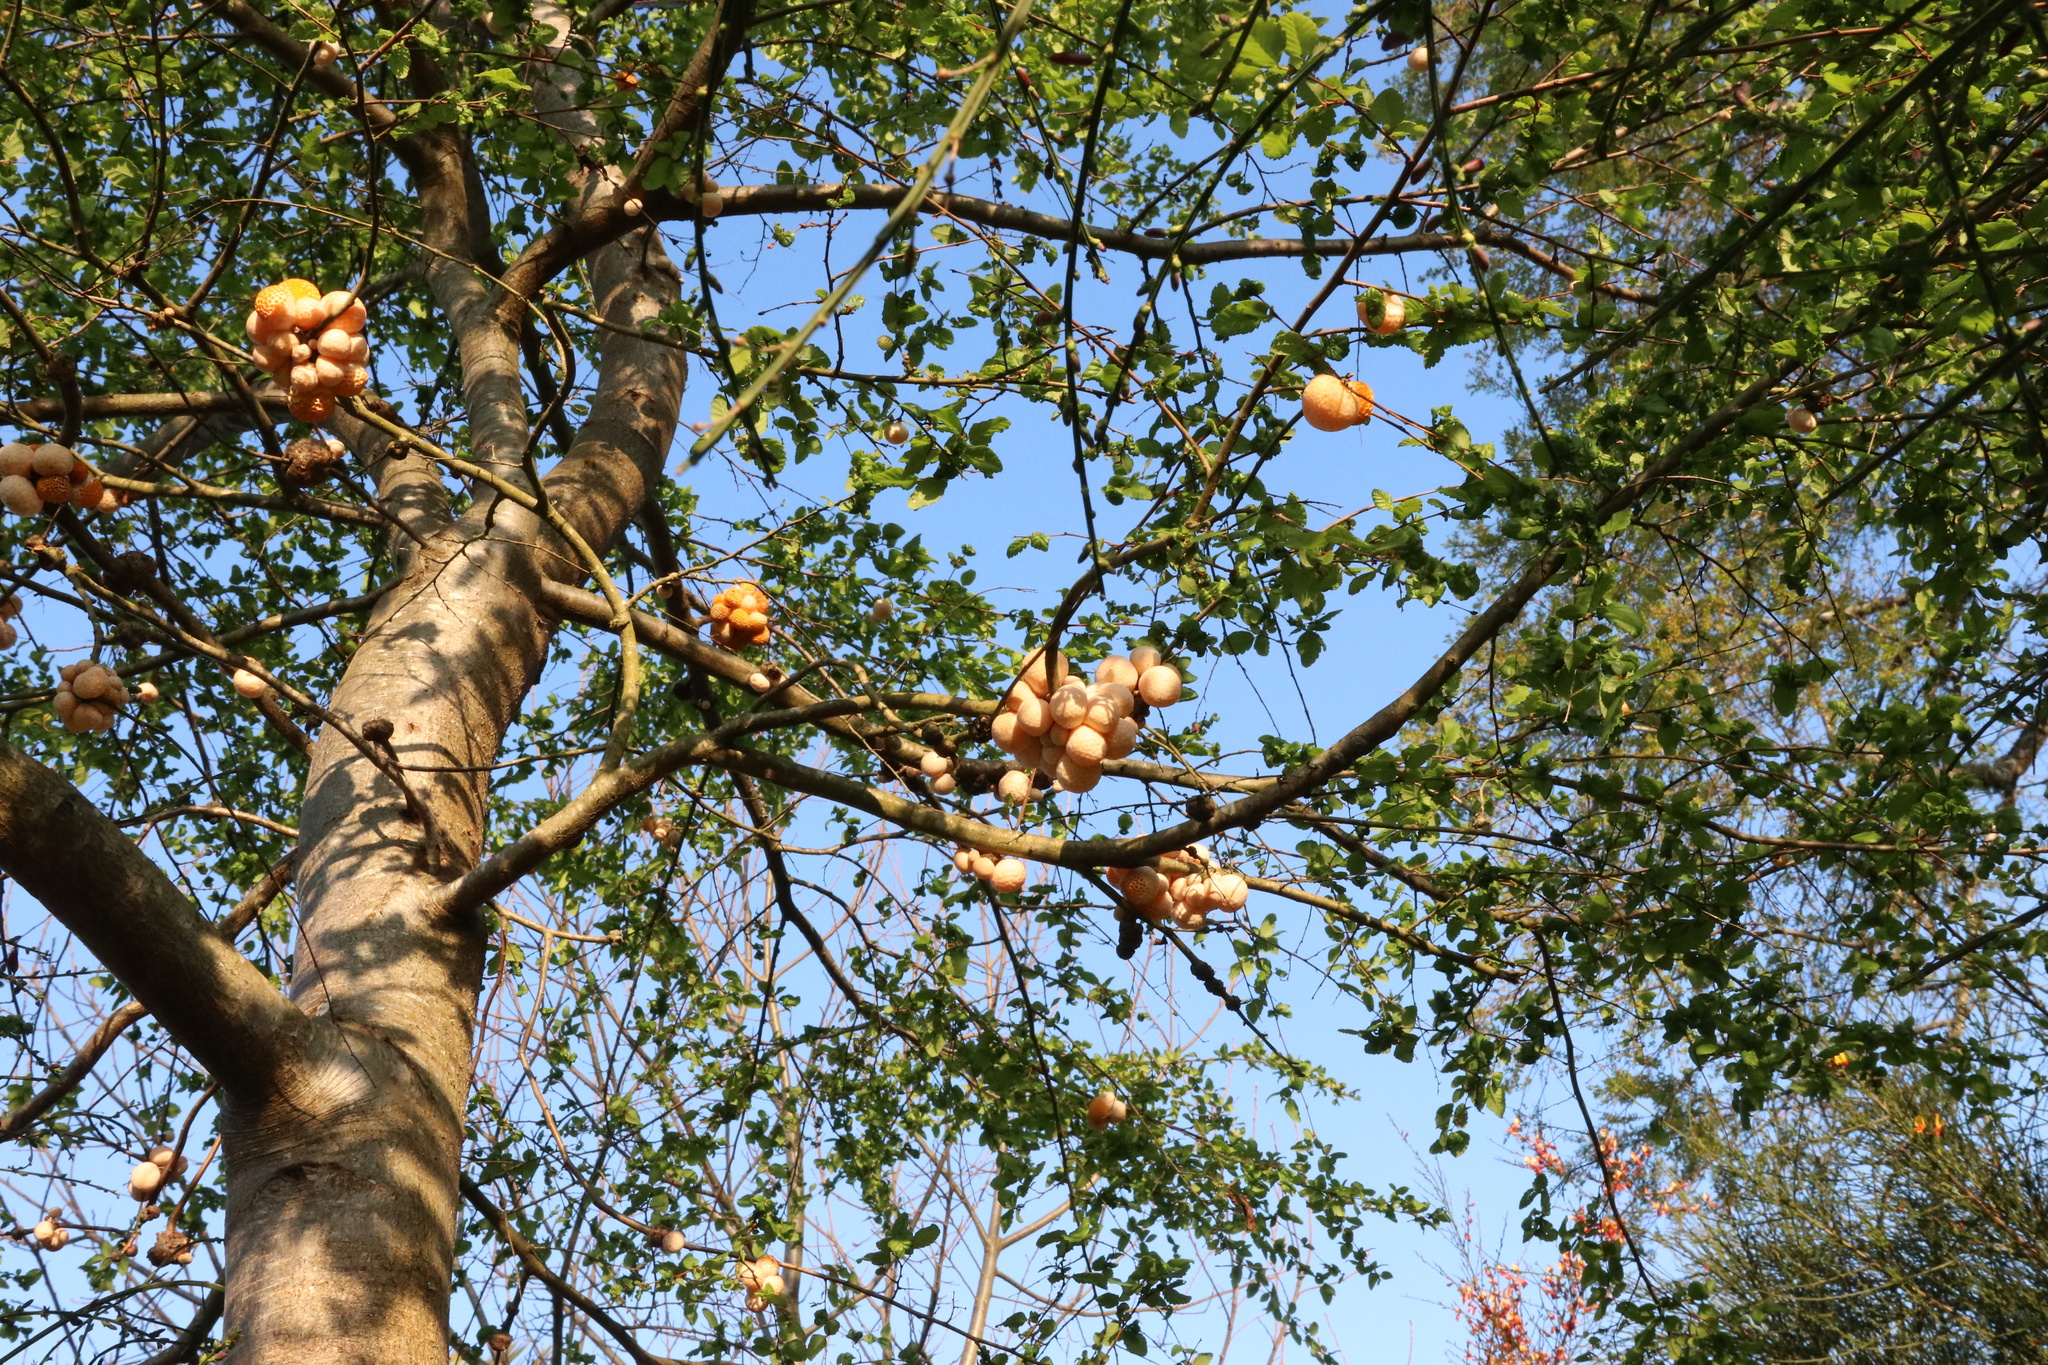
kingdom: Fungi
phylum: Ascomycota
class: Leotiomycetes
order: Cyttariales
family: Cyttariaceae
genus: Cyttaria
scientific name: Cyttaria espinosae
